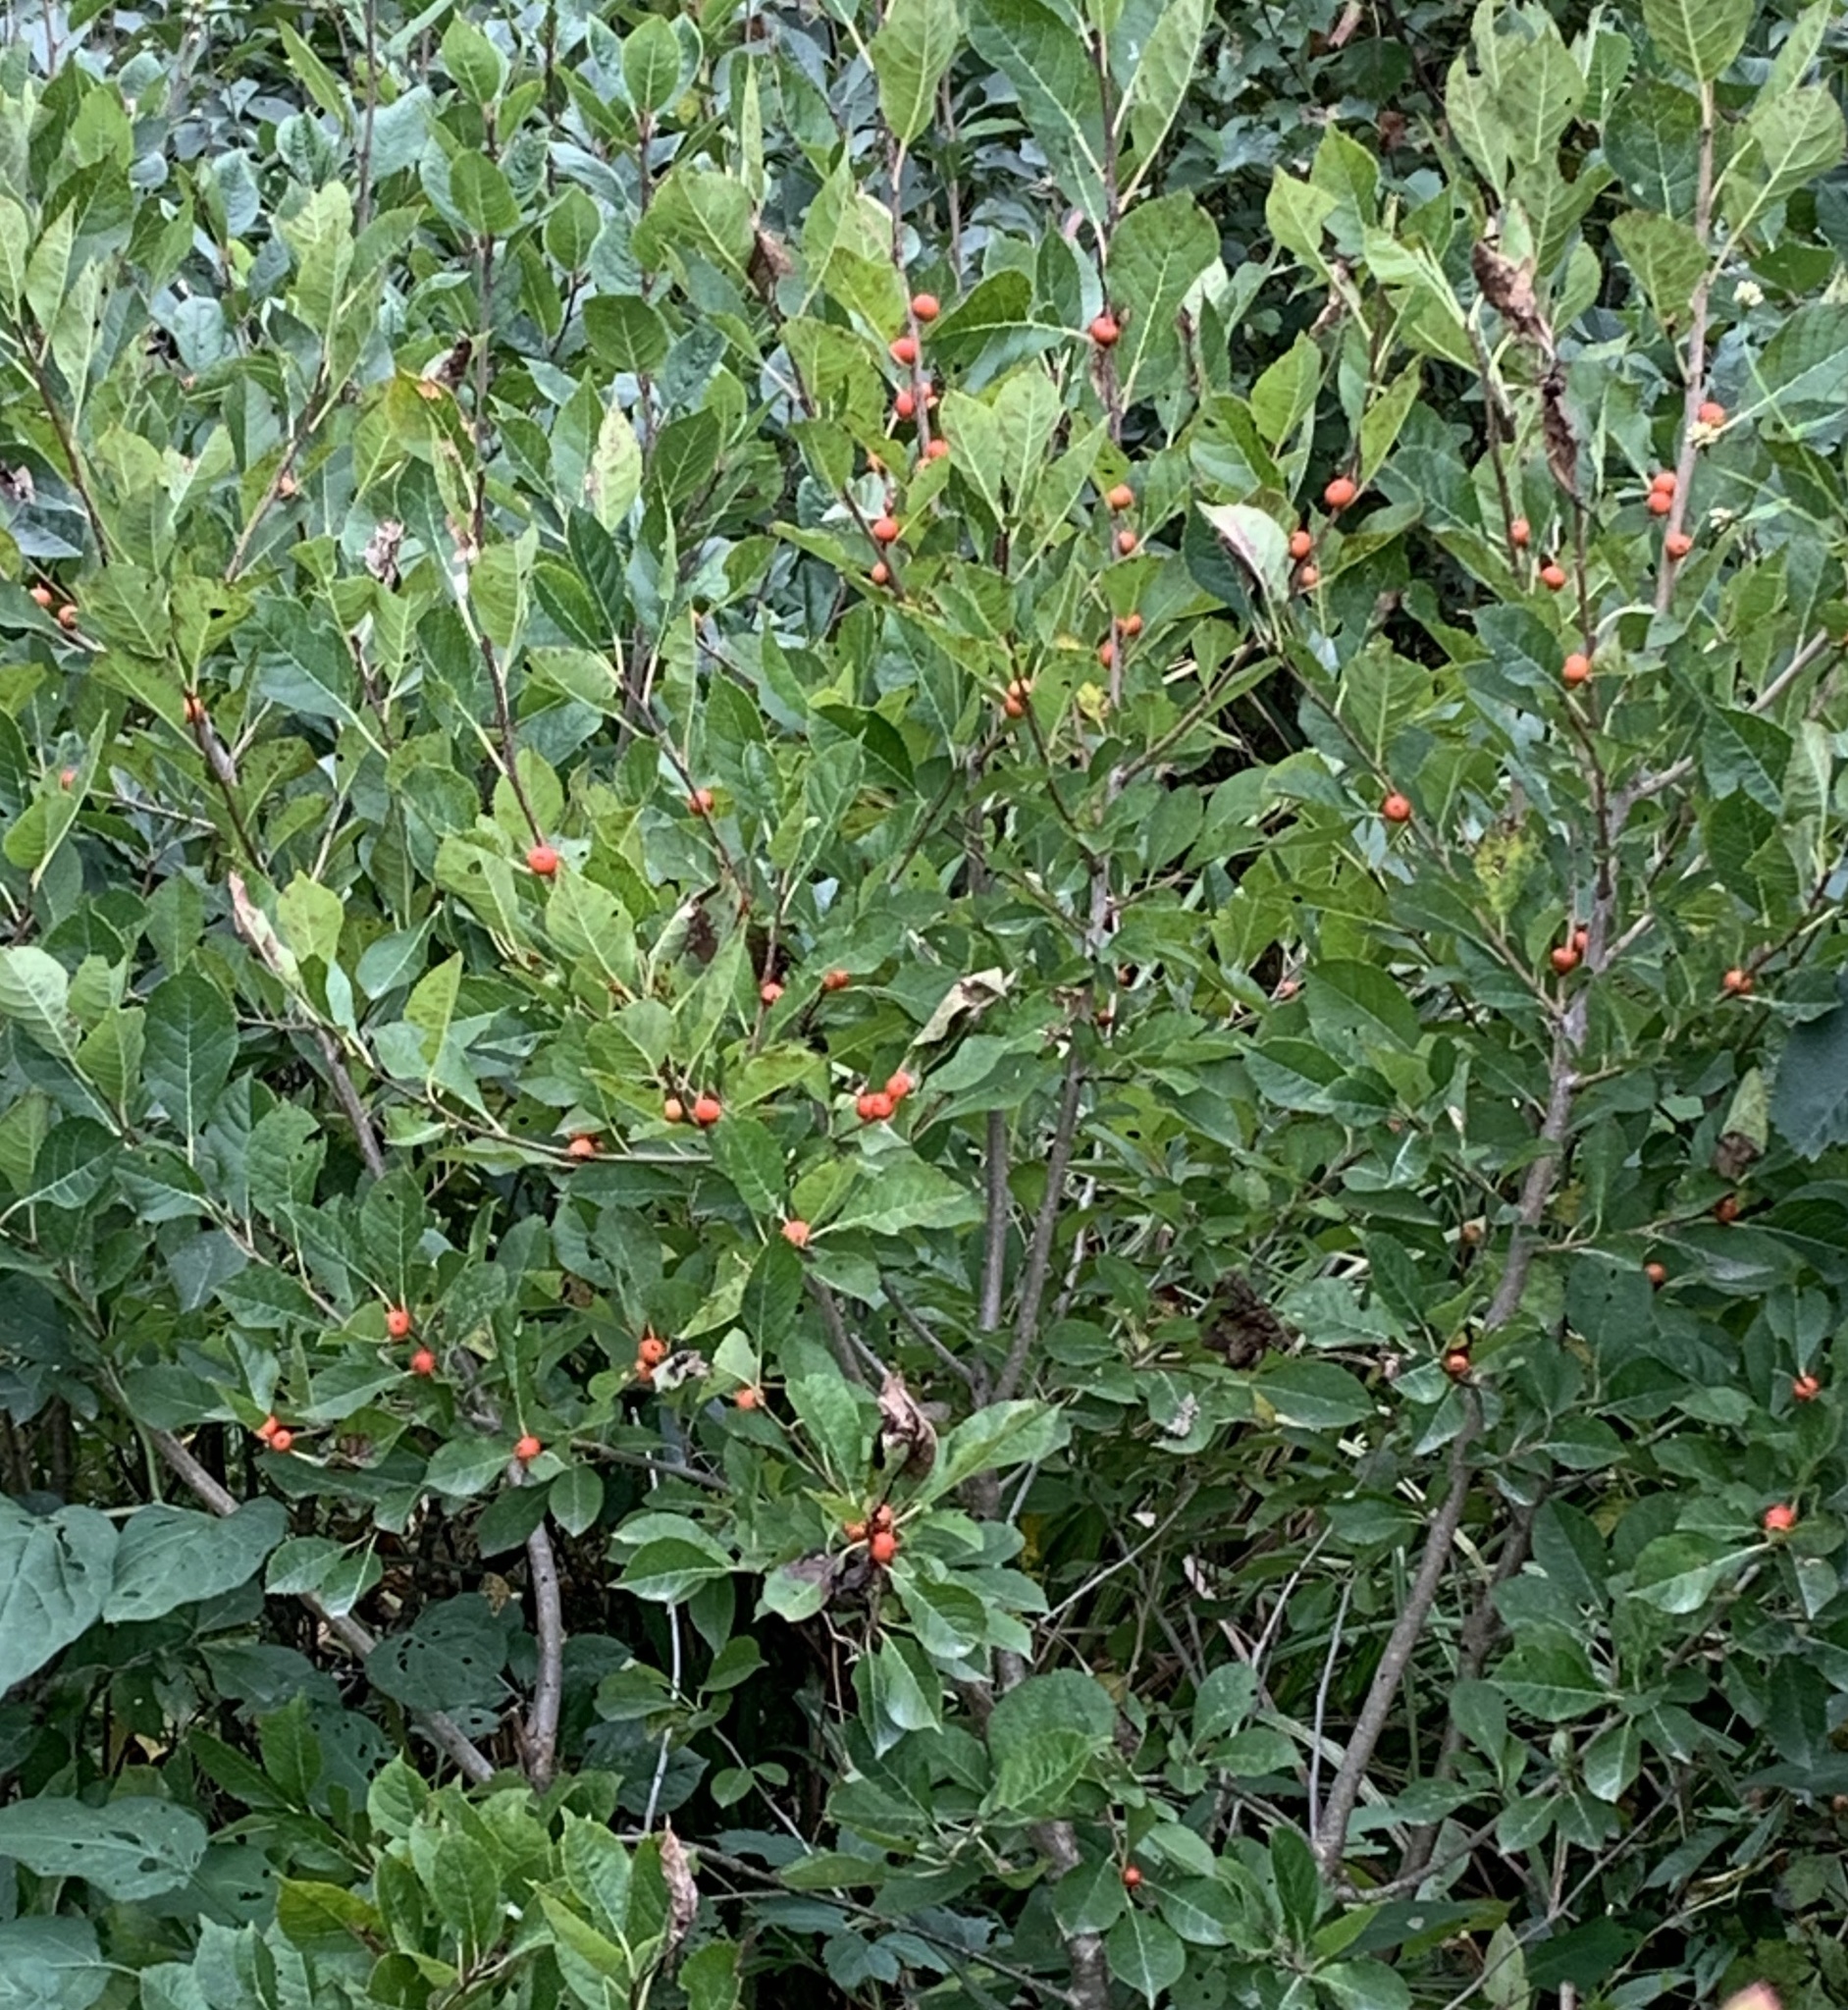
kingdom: Plantae
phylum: Tracheophyta
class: Magnoliopsida
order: Aquifoliales
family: Aquifoliaceae
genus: Ilex
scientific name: Ilex verticillata
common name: Virginia winterberry
